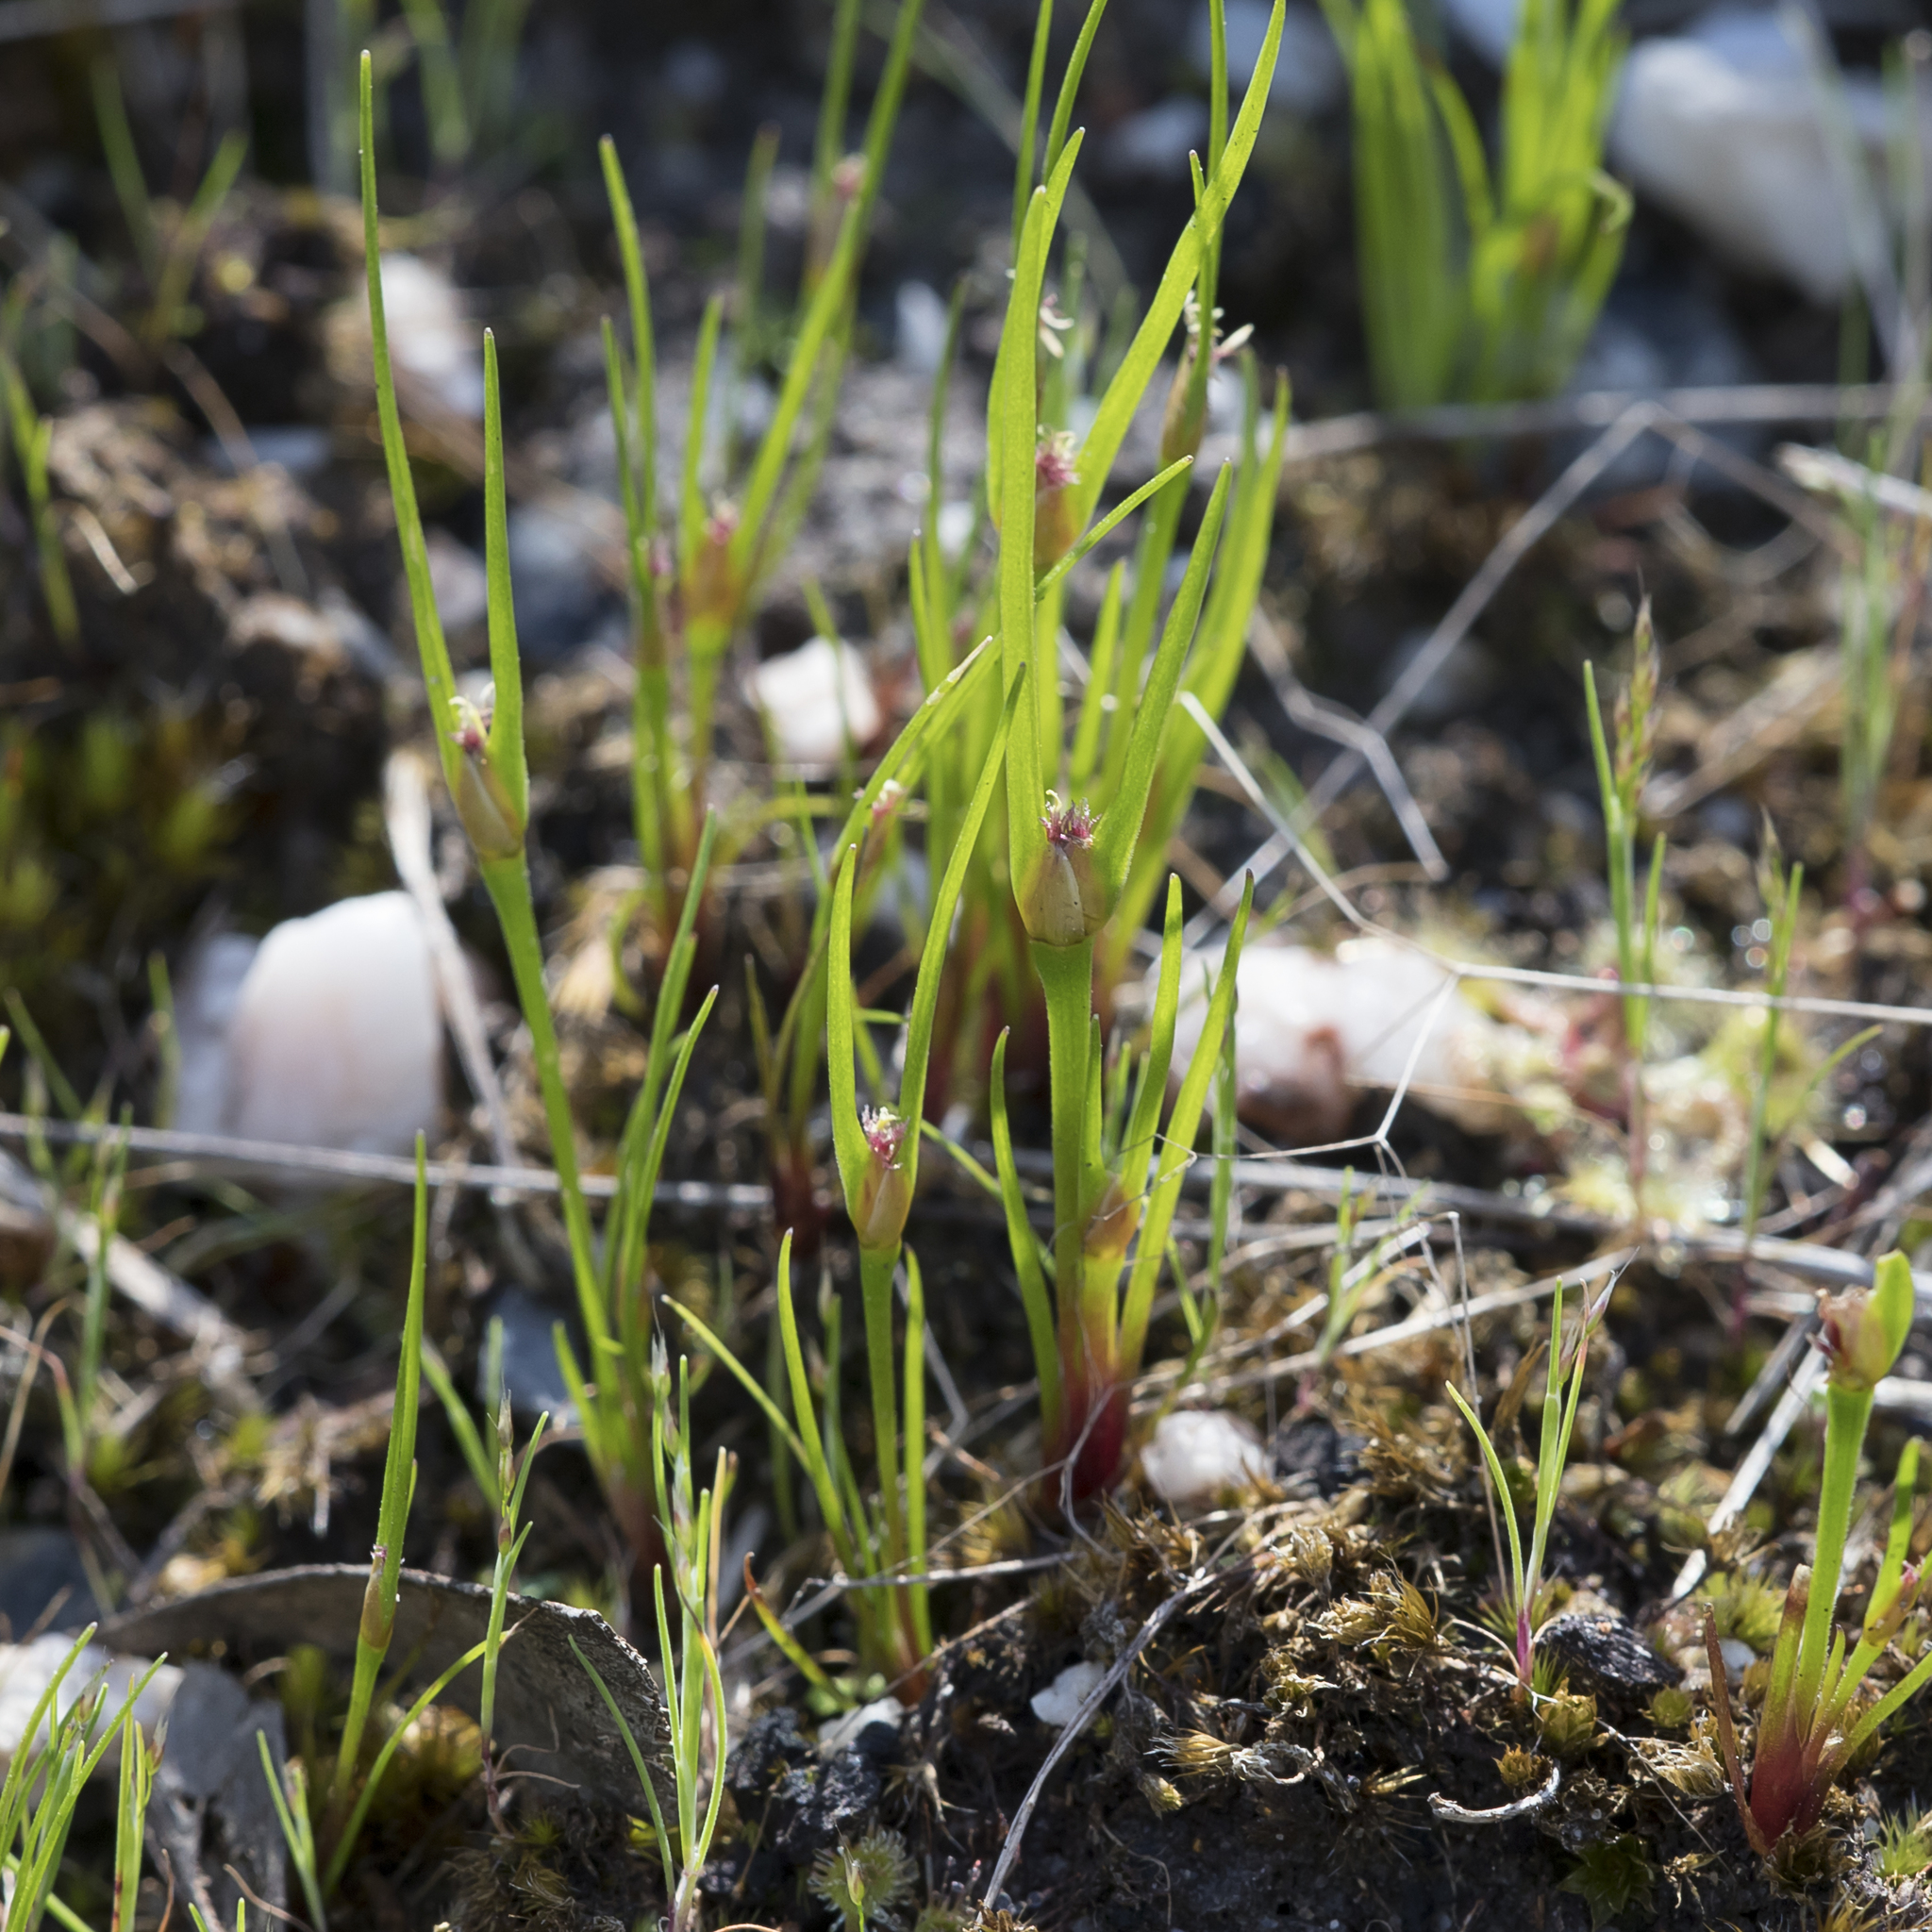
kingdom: Plantae
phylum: Tracheophyta
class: Liliopsida
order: Poales
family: Restionaceae
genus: Centrolepis
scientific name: Centrolepis aristata
